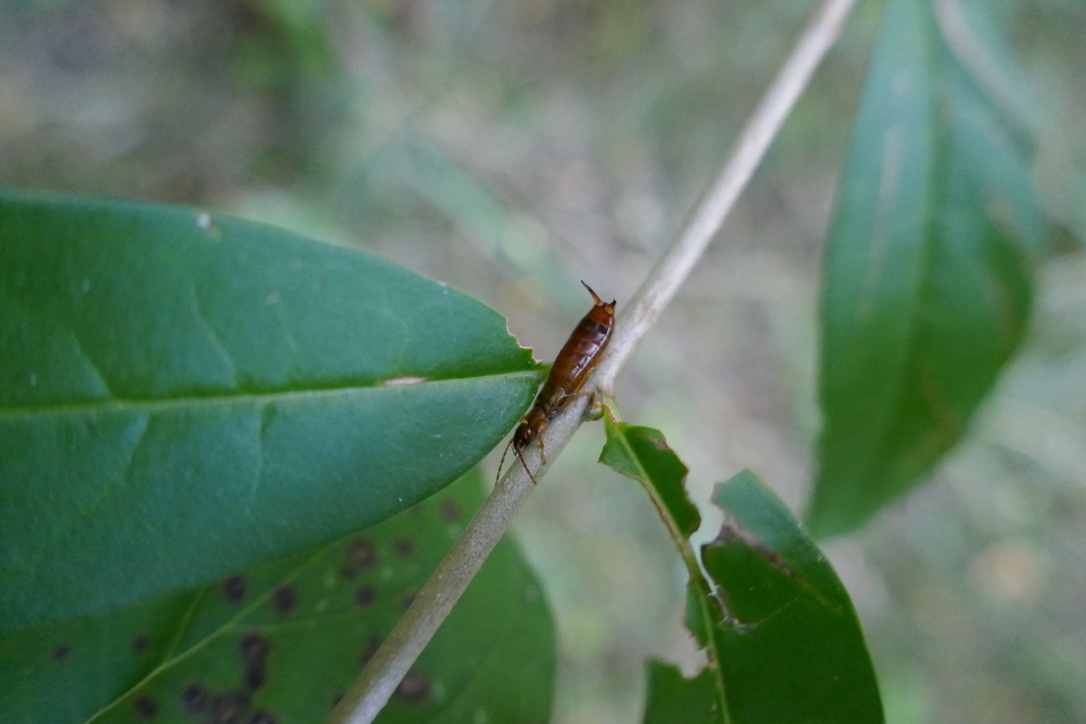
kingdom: Animalia
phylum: Arthropoda
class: Insecta
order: Dermaptera
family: Forficulidae
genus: Apterygida
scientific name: Apterygida albipennis
